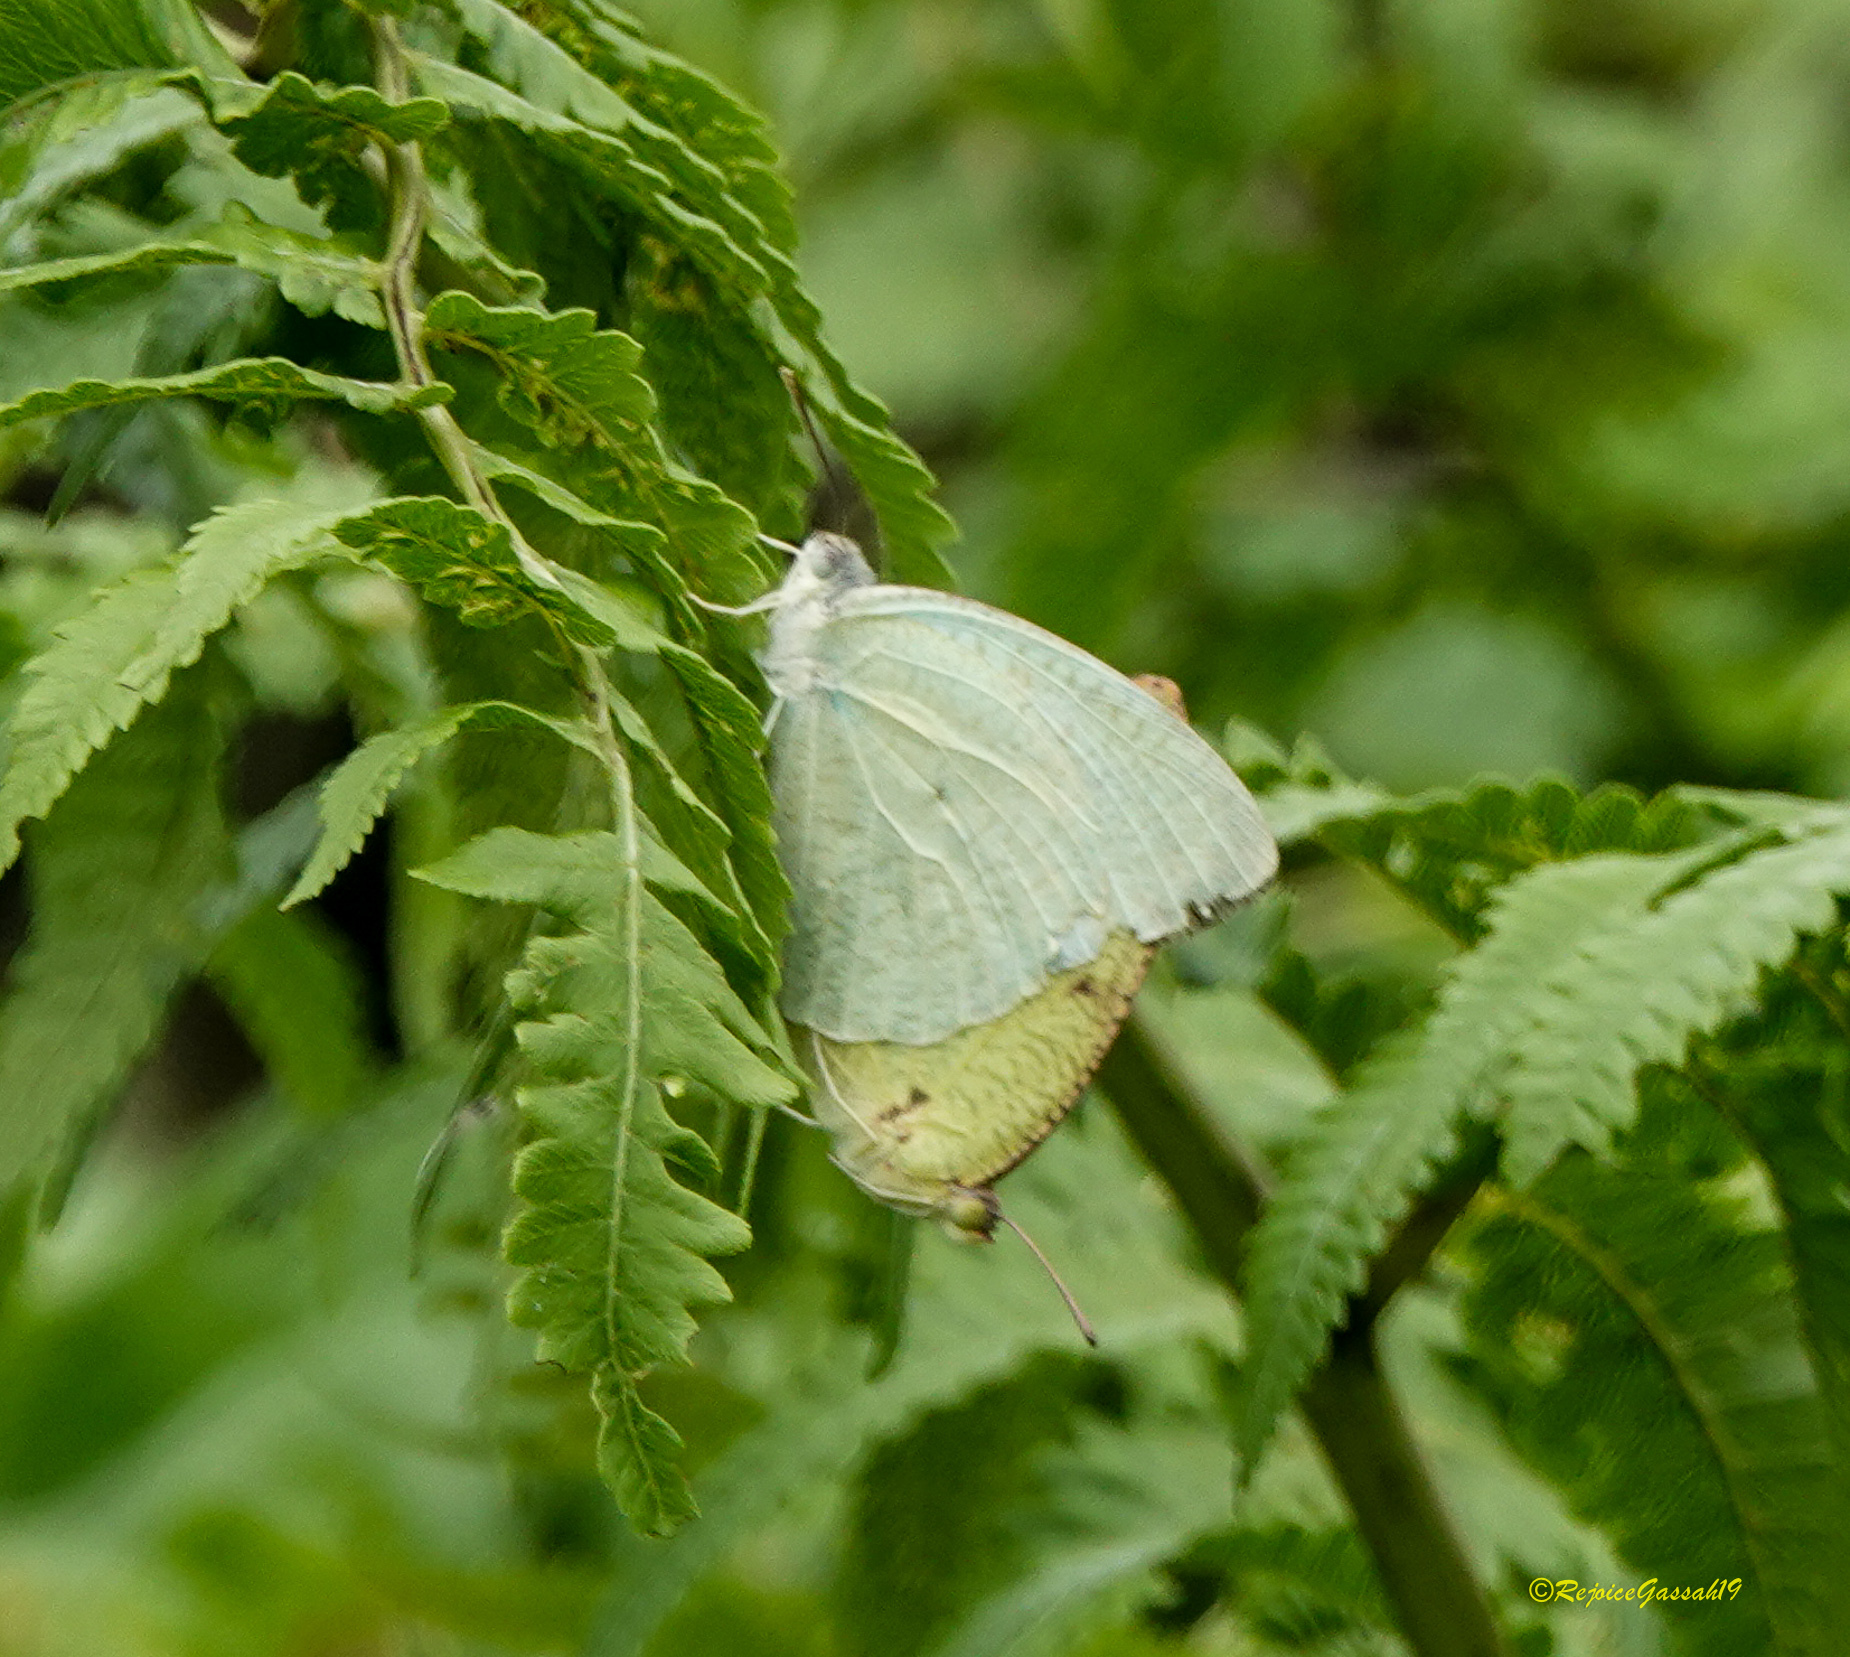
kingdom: Animalia
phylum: Arthropoda
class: Insecta
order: Lepidoptera
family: Pieridae
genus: Catopsilia
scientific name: Catopsilia pyranthe
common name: Mottled emigrant
